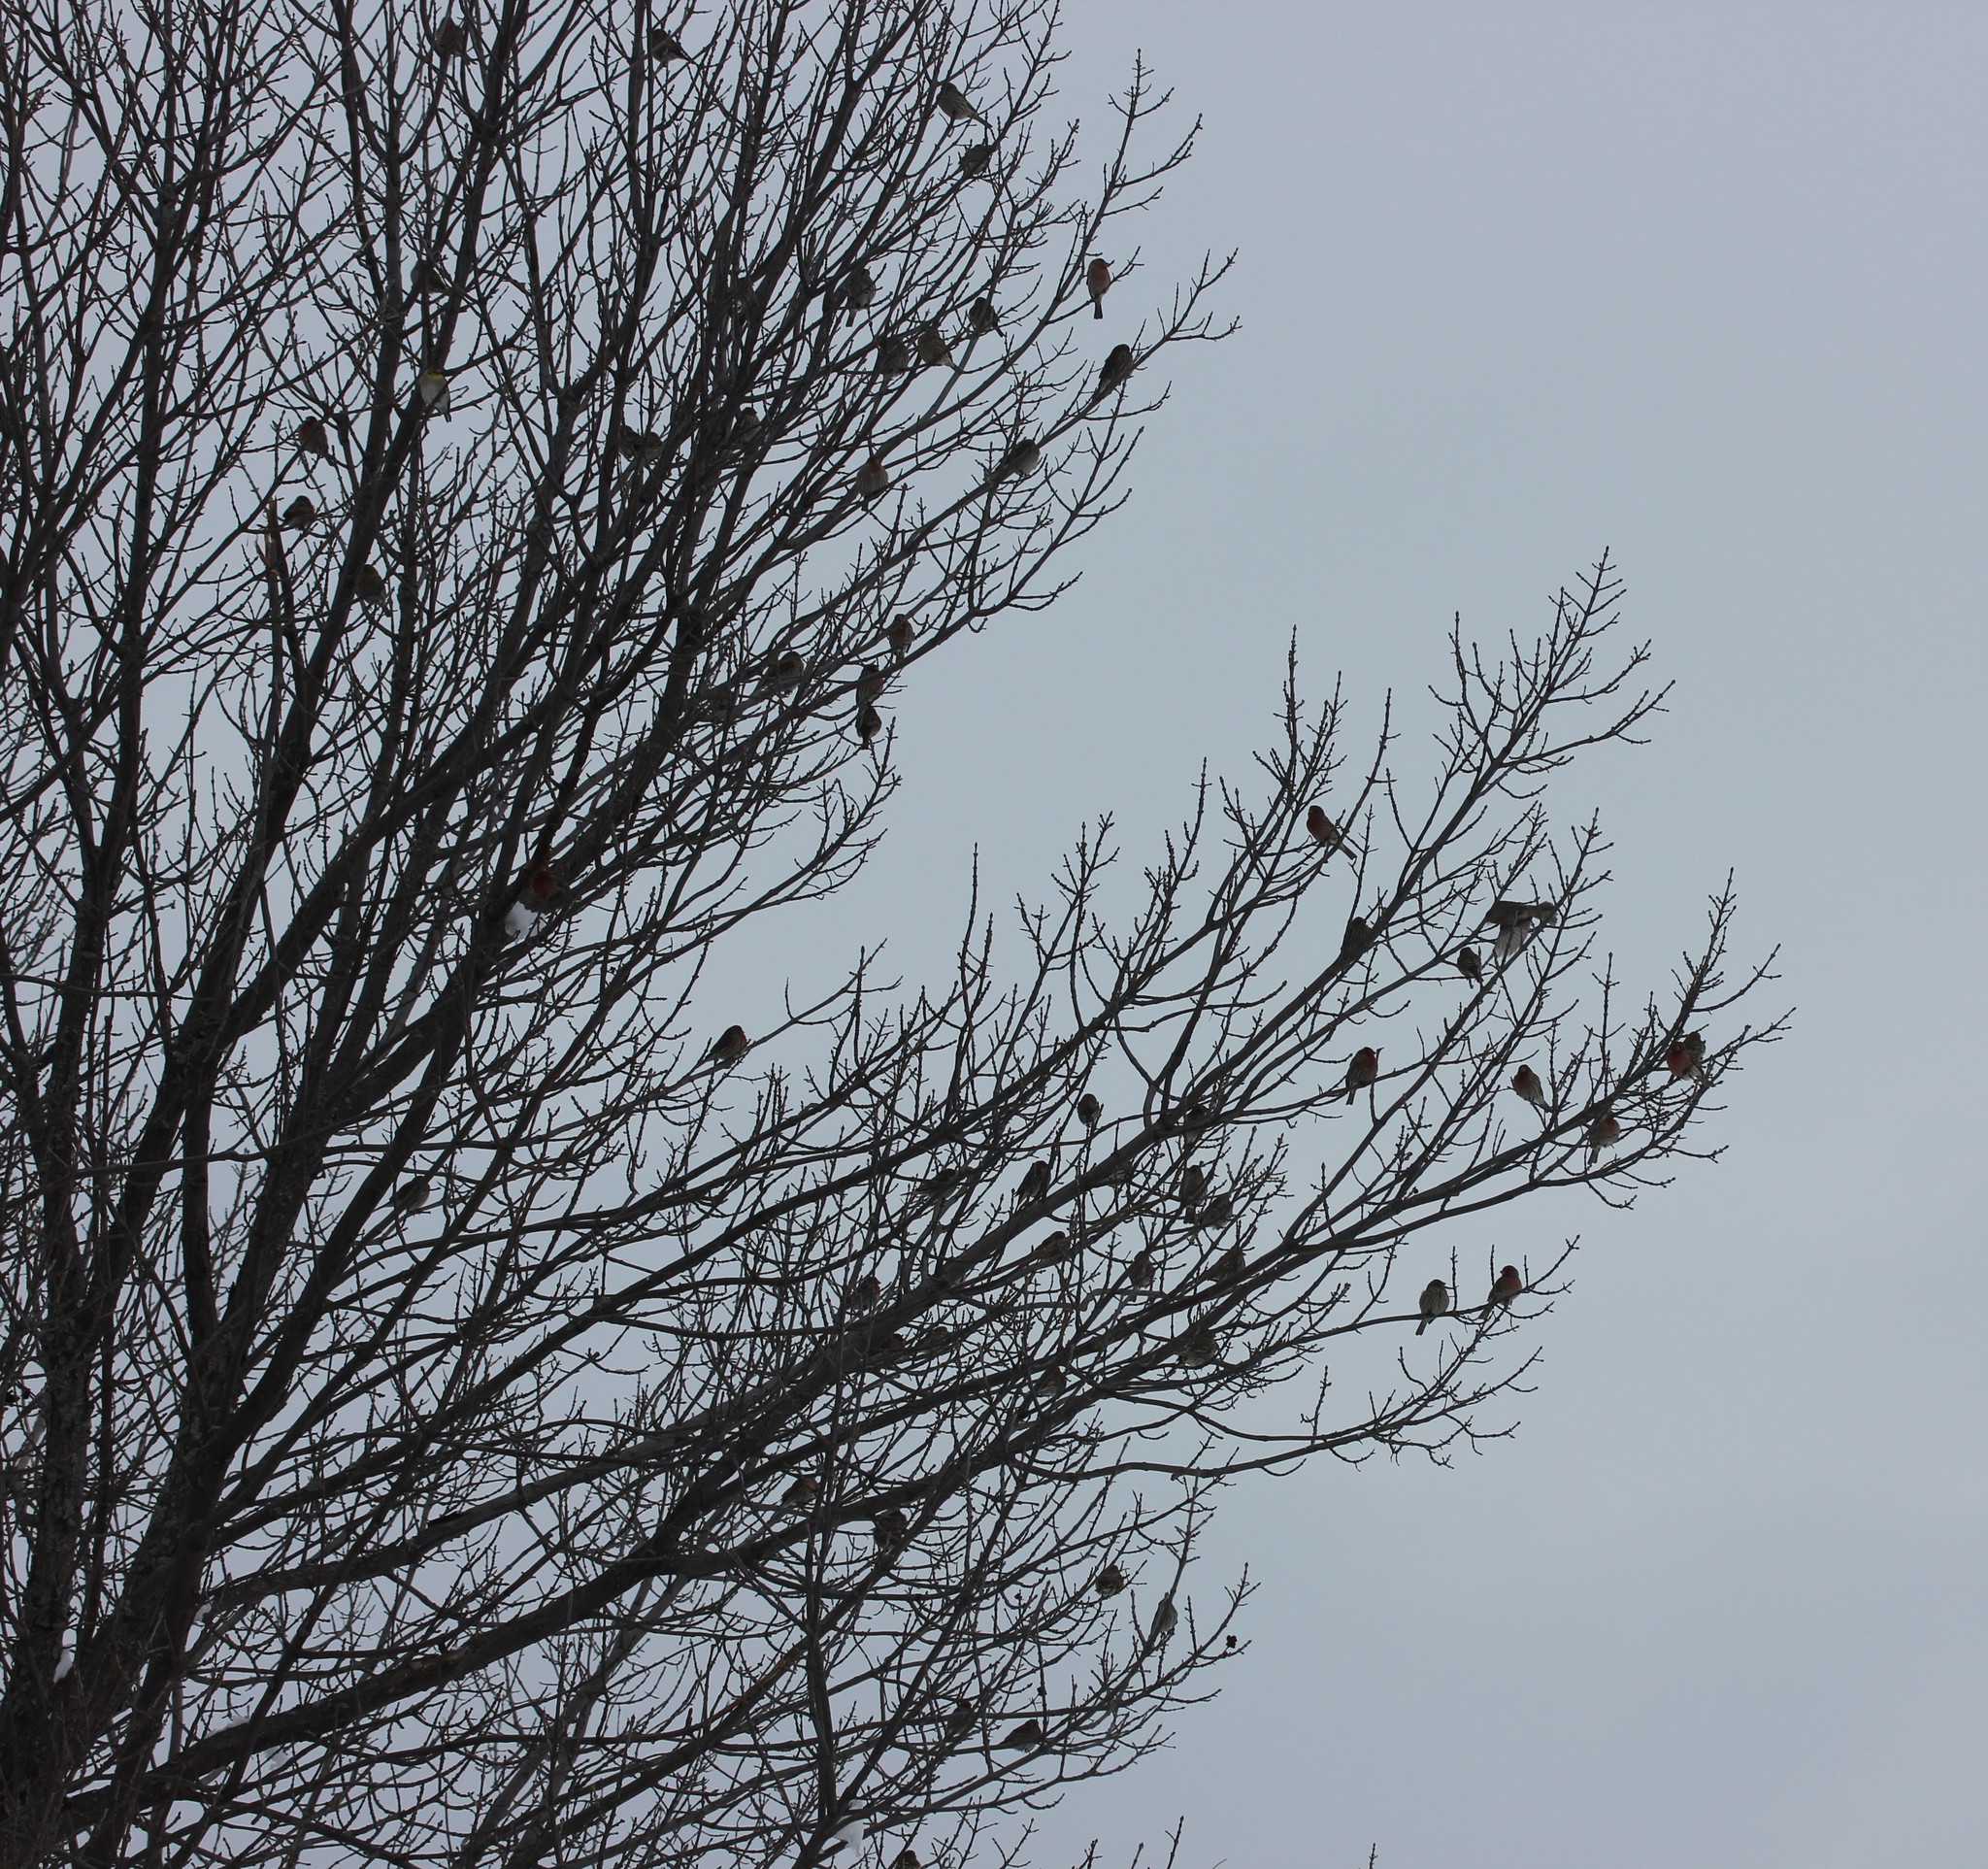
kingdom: Animalia
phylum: Chordata
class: Aves
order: Passeriformes
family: Fringillidae
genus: Haemorhous
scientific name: Haemorhous mexicanus
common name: House finch
